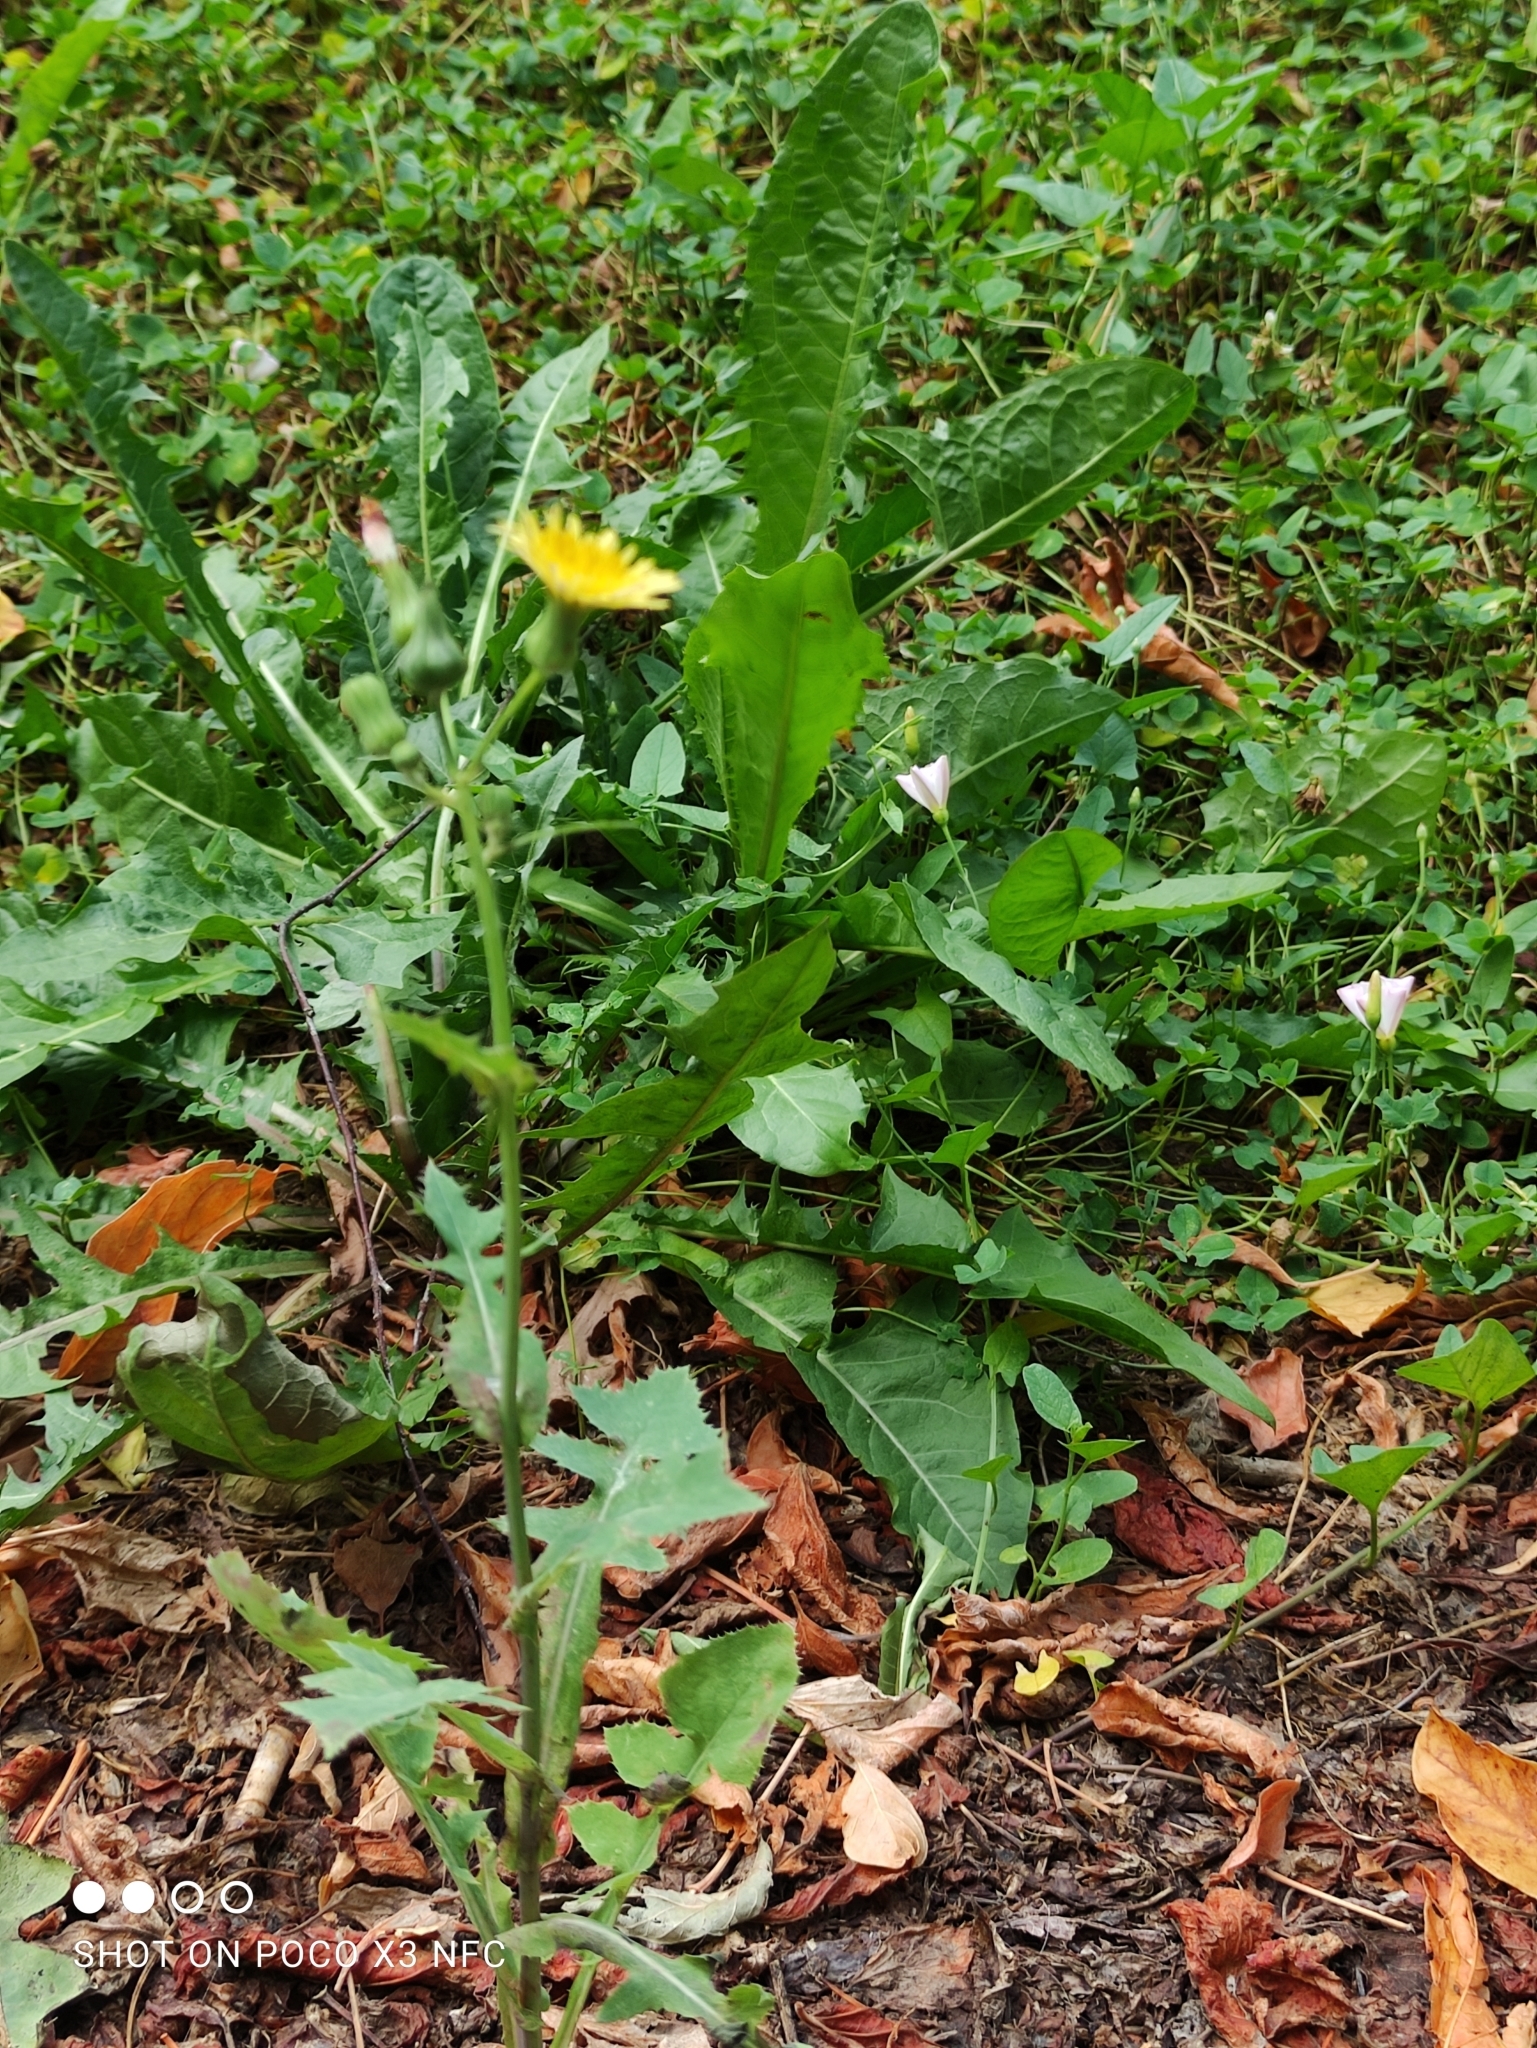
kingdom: Plantae
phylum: Tracheophyta
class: Magnoliopsida
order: Asterales
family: Asteraceae
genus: Sonchus
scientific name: Sonchus oleraceus
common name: Common sowthistle
